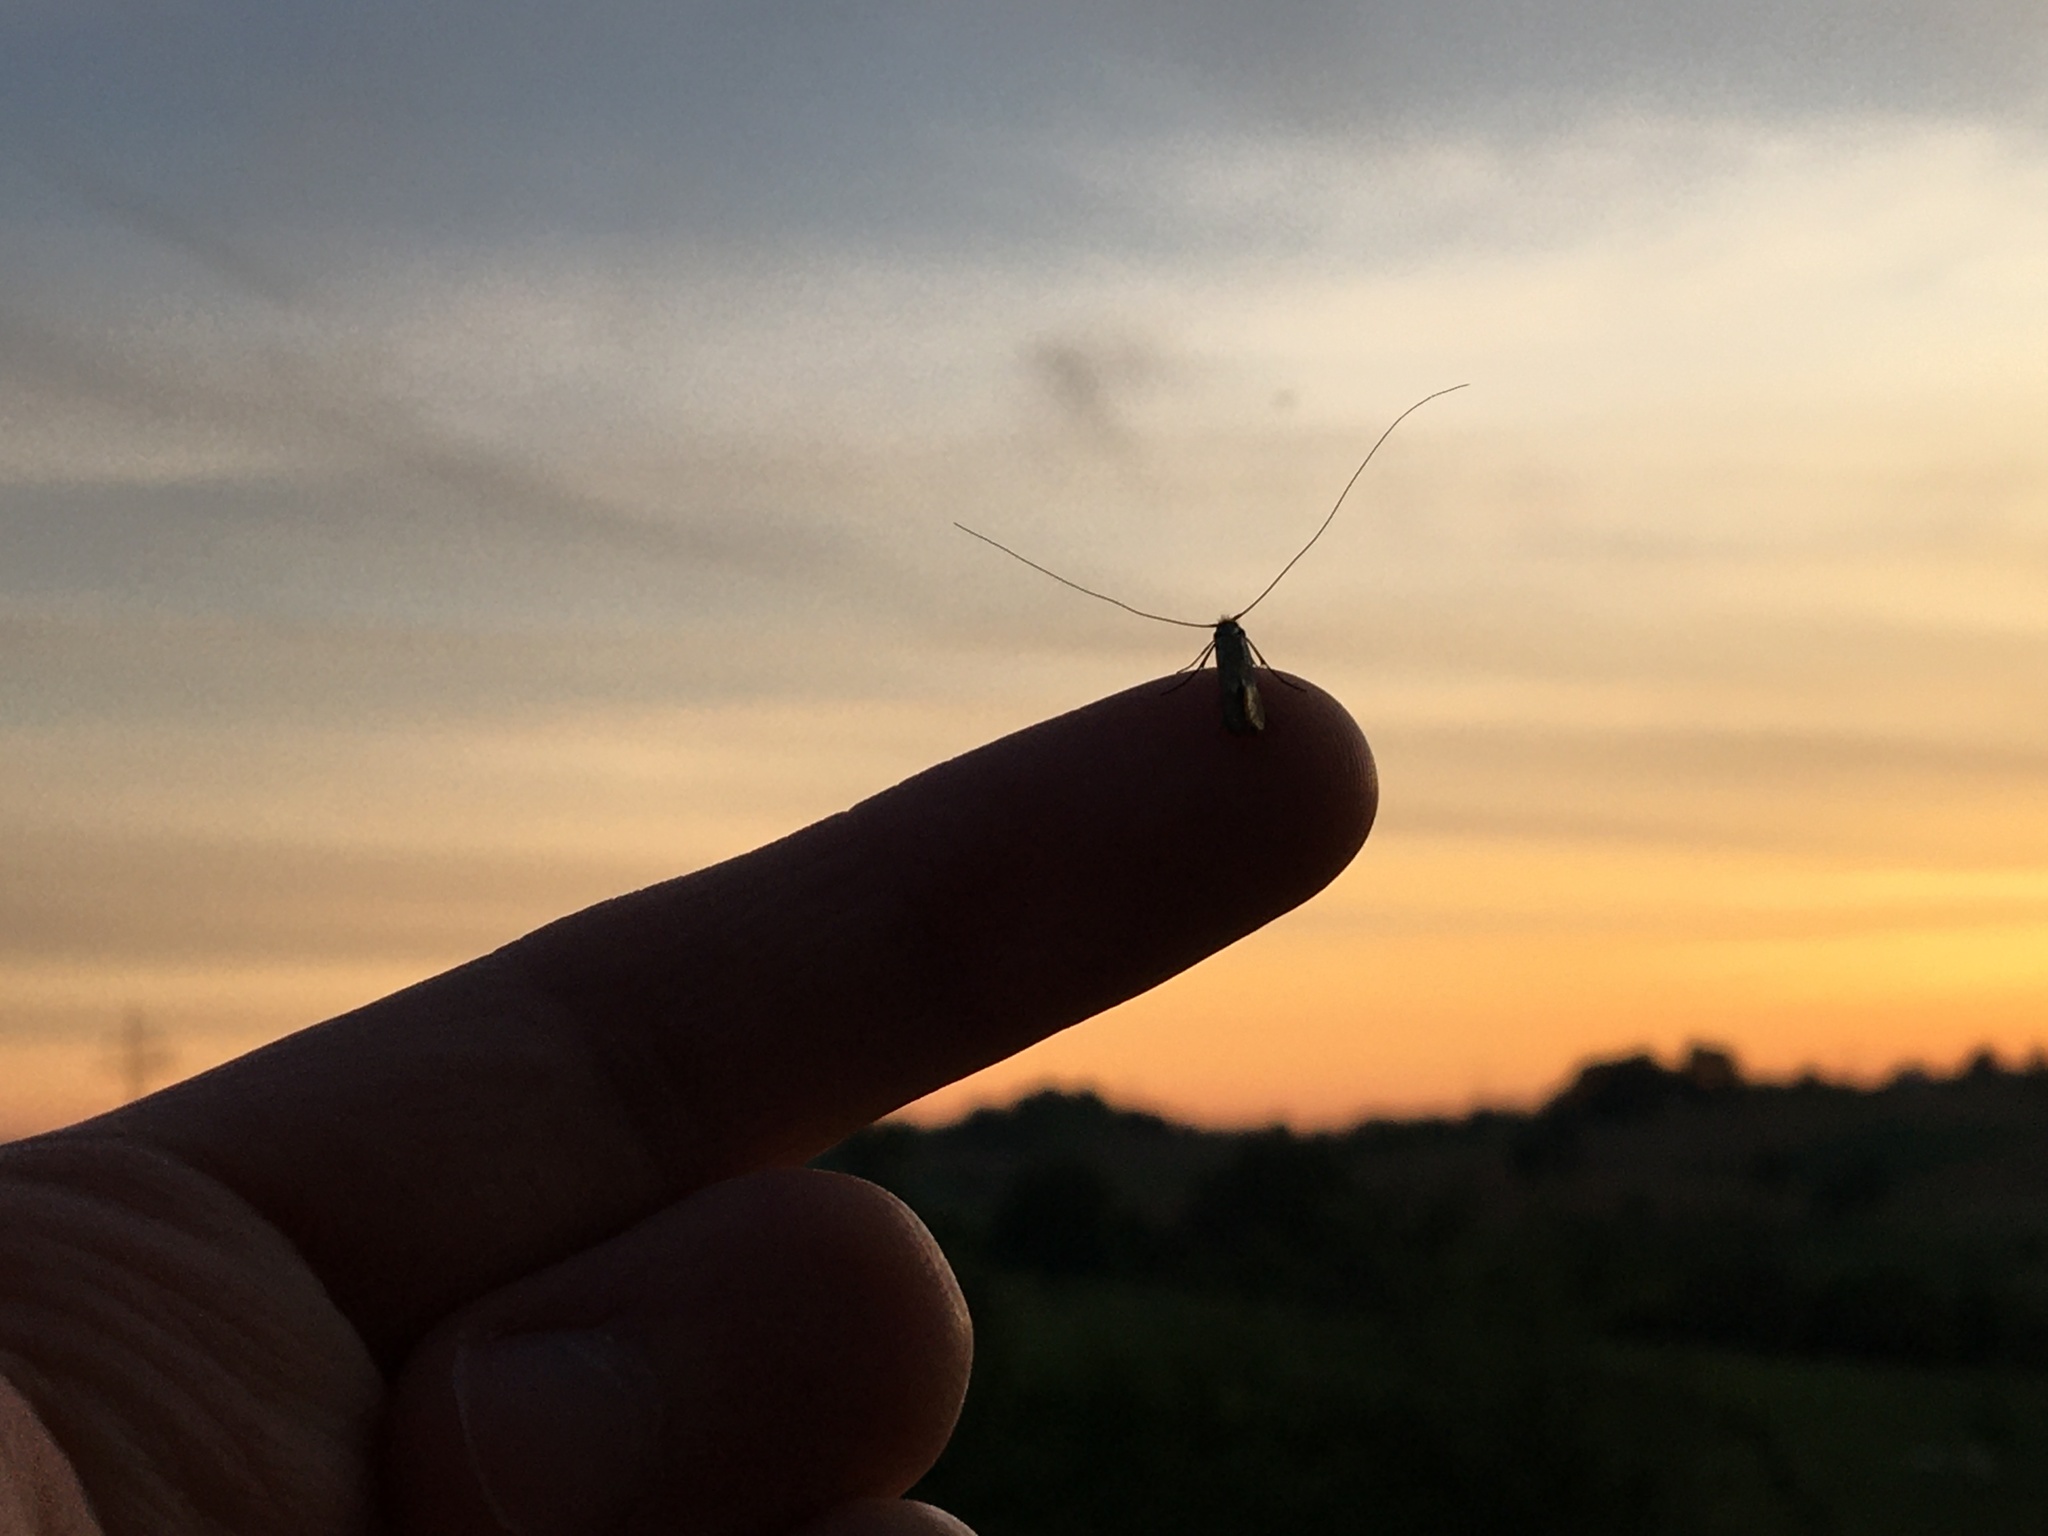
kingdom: Animalia
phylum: Arthropoda
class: Insecta
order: Lepidoptera
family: Adelidae
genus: Nemophora
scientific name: Nemophora metallica
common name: Brassy long-horn
